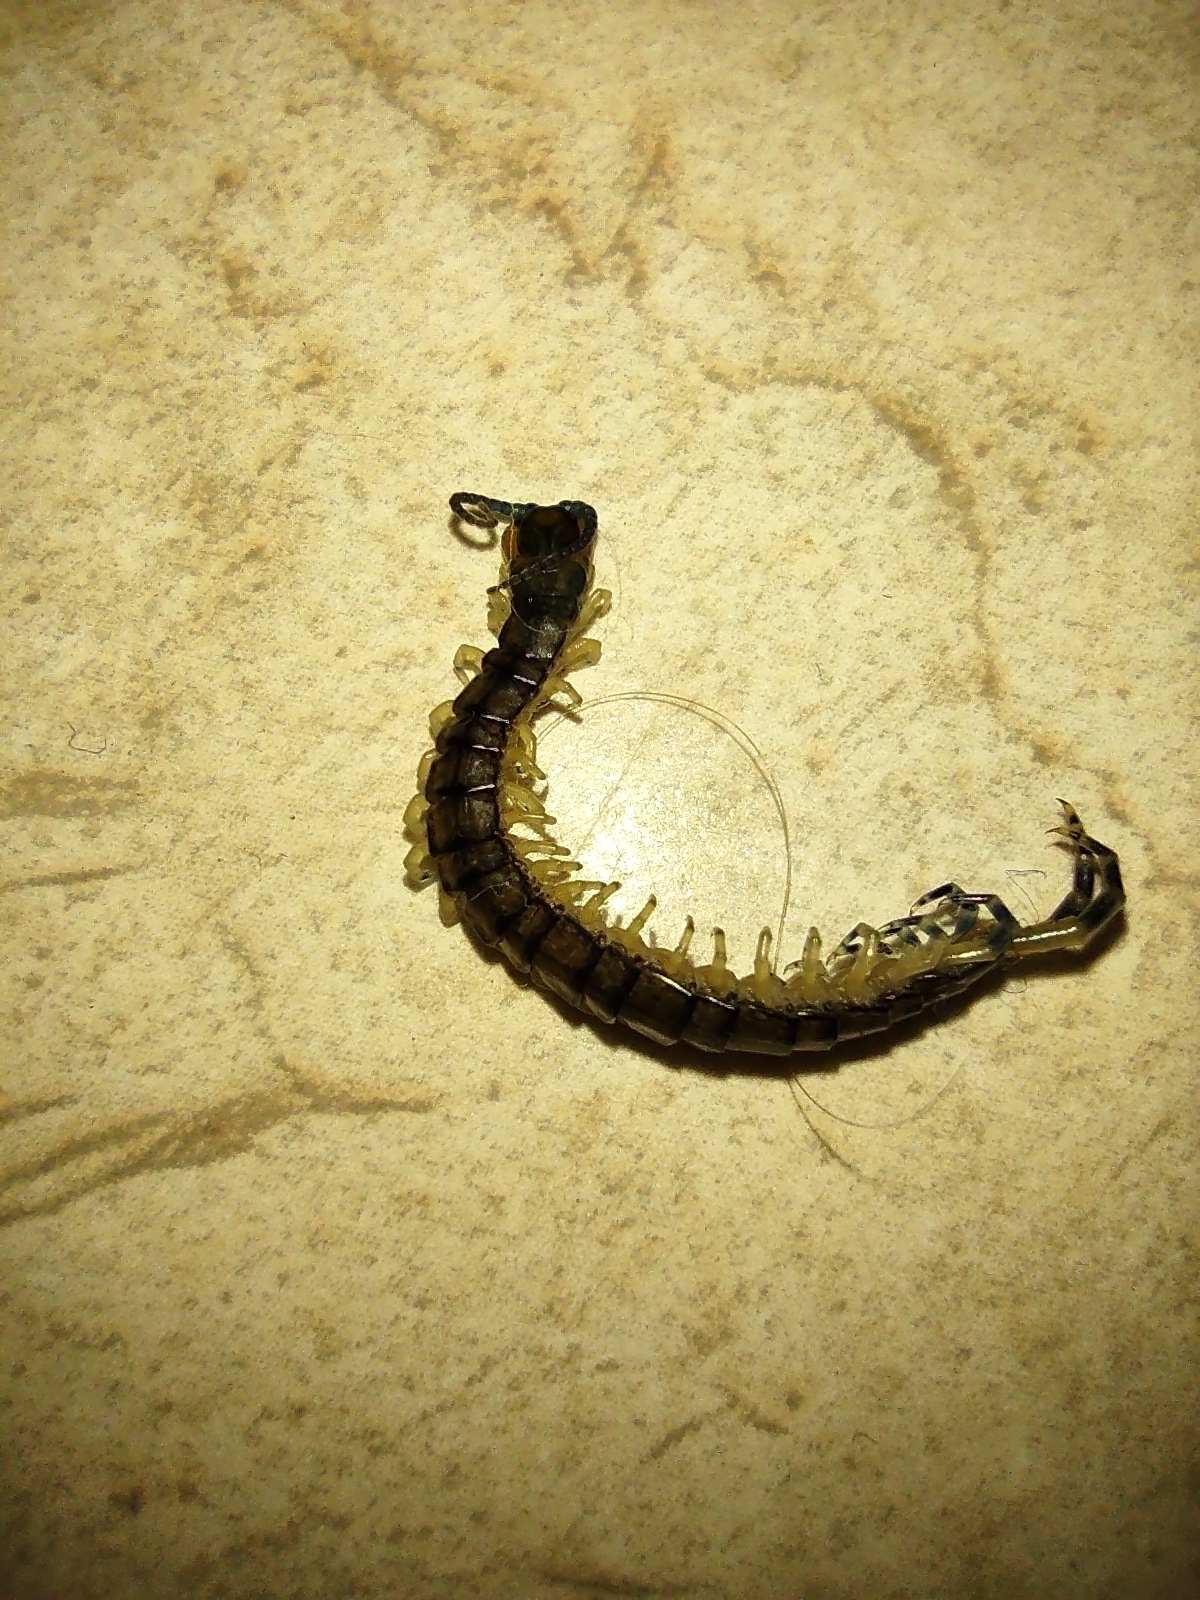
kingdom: Animalia
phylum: Arthropoda
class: Chilopoda
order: Scolopendromorpha
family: Scolopendridae
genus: Hemiscolopendra
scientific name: Hemiscolopendra marginata
